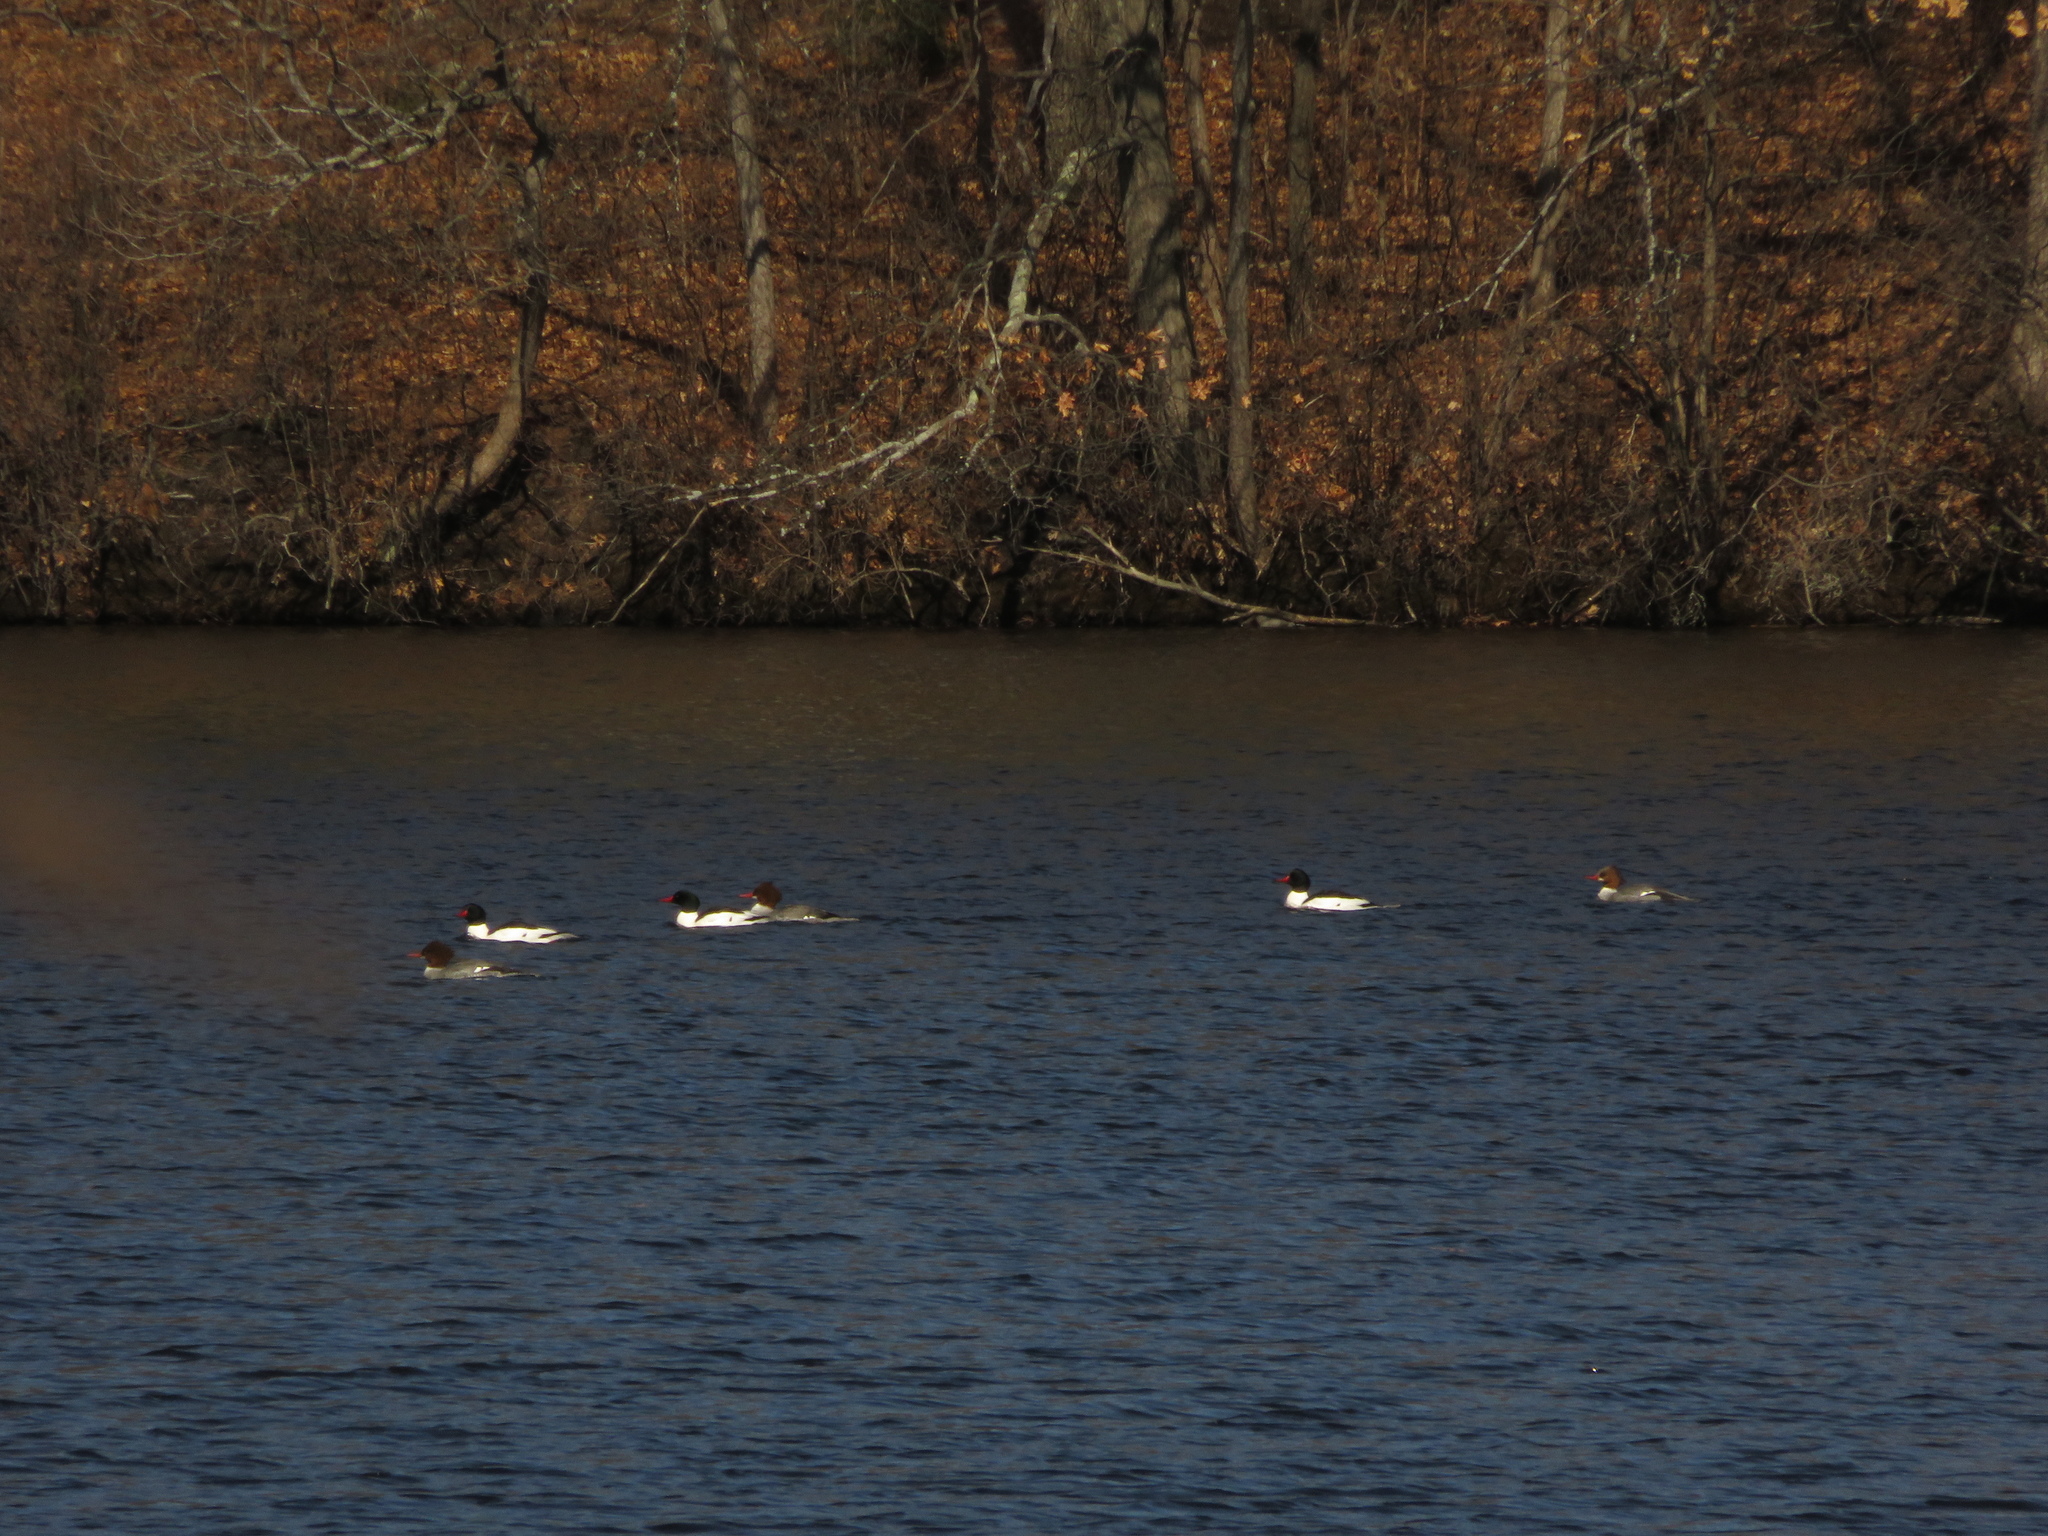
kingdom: Animalia
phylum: Chordata
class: Aves
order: Anseriformes
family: Anatidae
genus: Mergus
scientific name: Mergus merganser
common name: Common merganser
